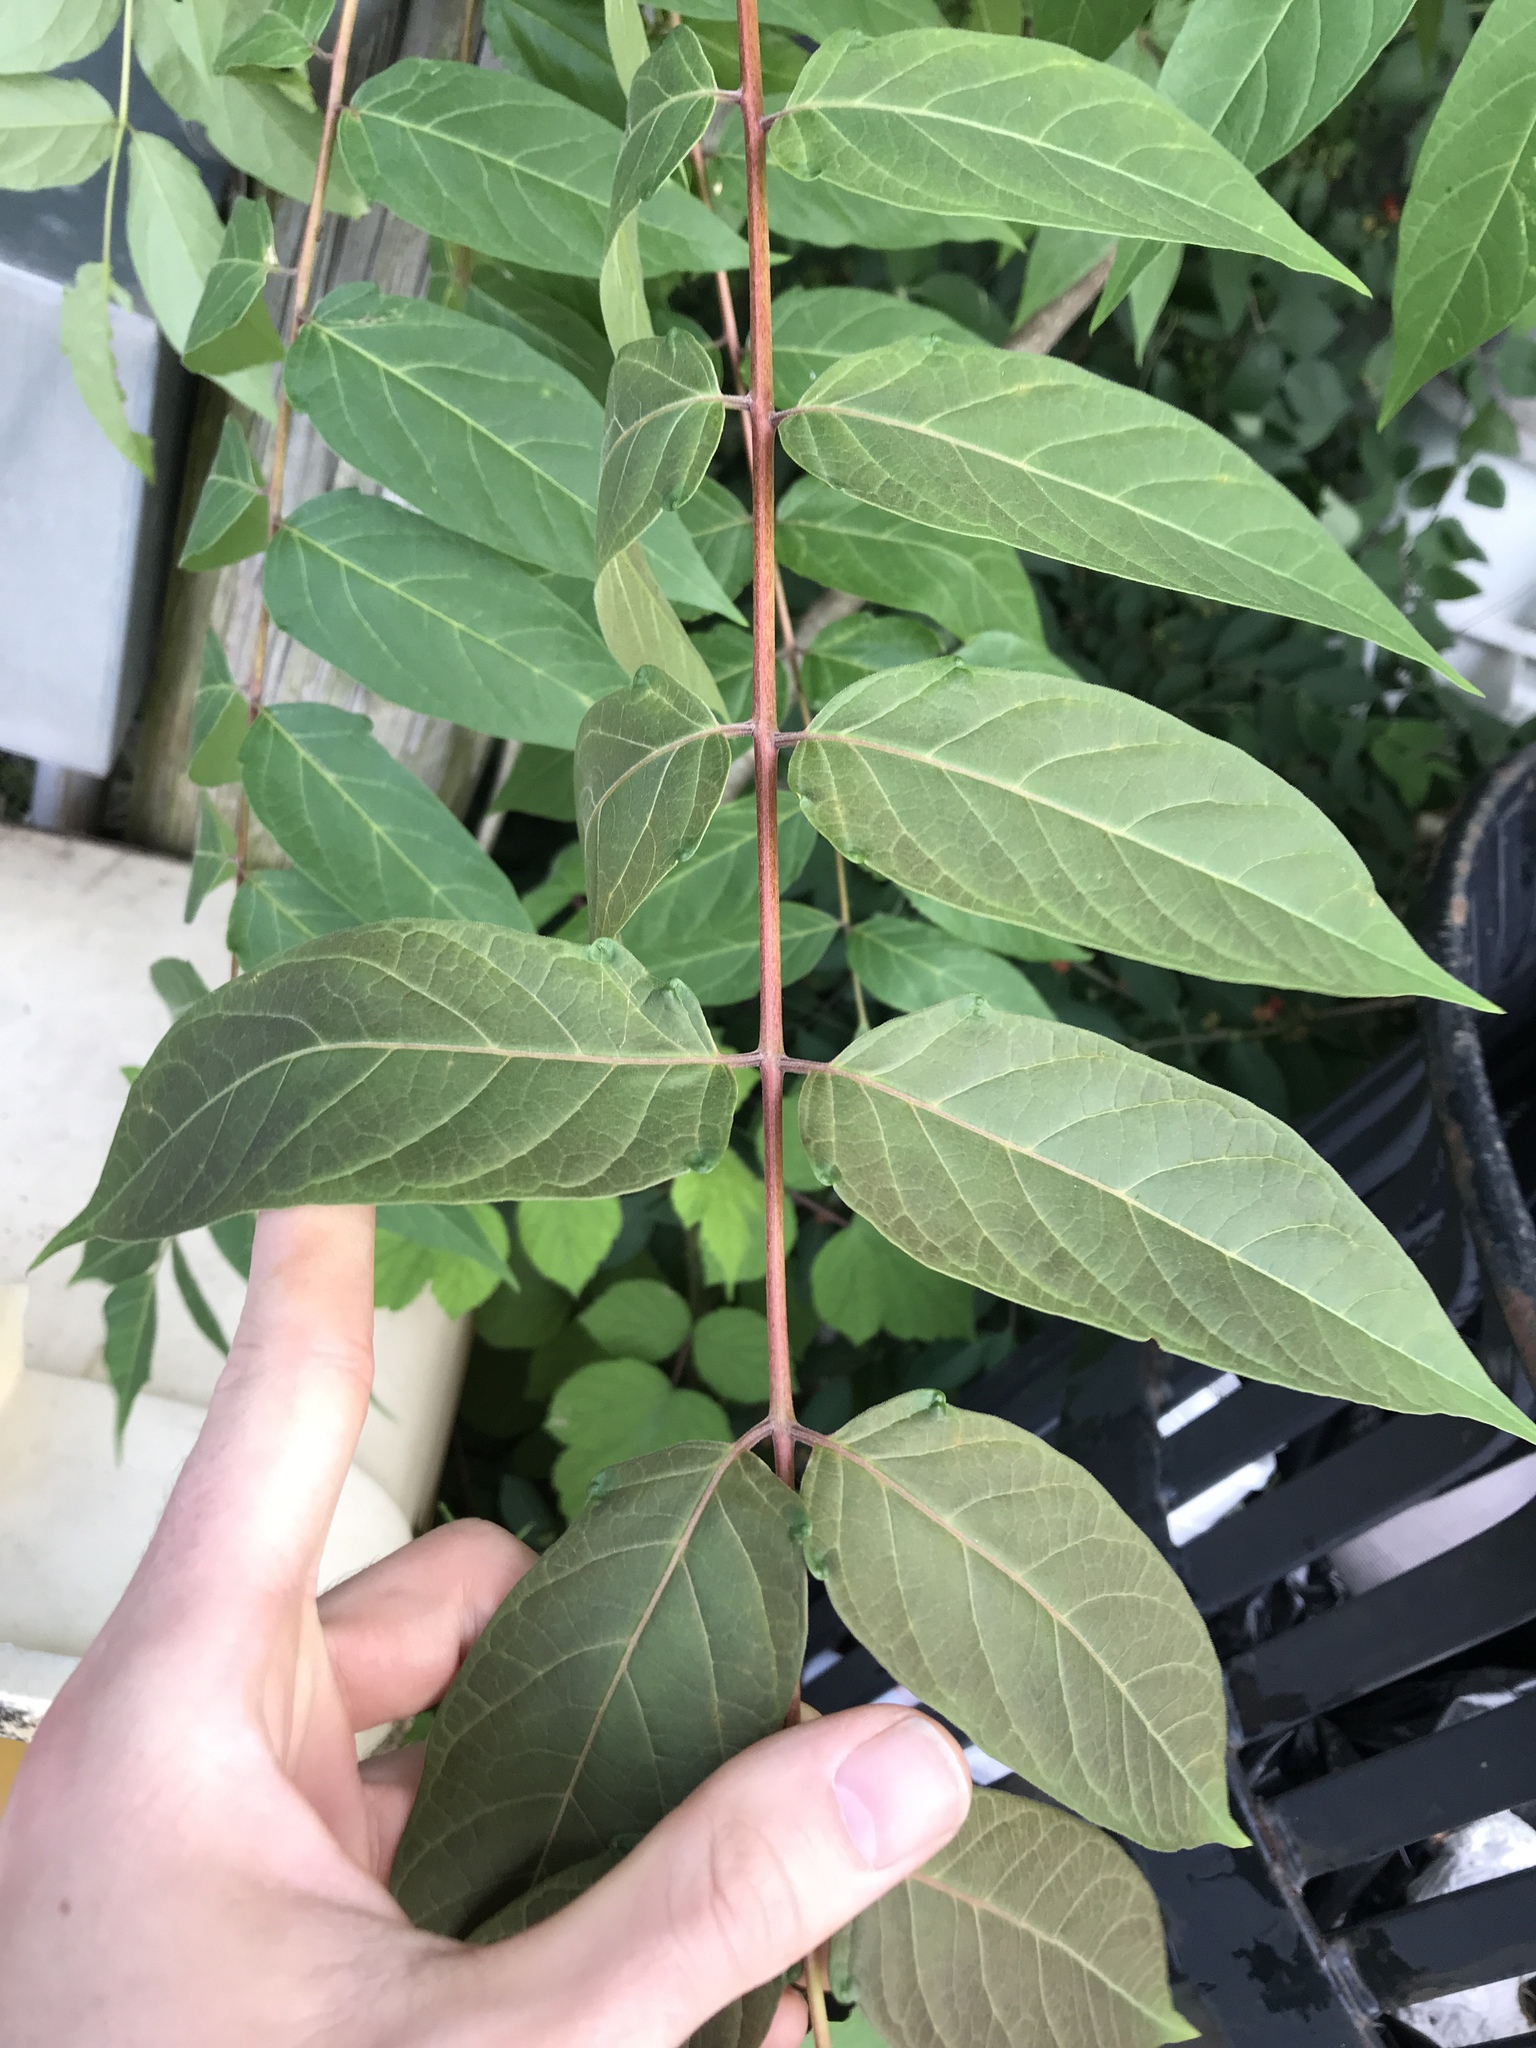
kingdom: Plantae
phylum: Tracheophyta
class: Magnoliopsida
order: Sapindales
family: Simaroubaceae
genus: Ailanthus
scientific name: Ailanthus altissima
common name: Tree-of-heaven
